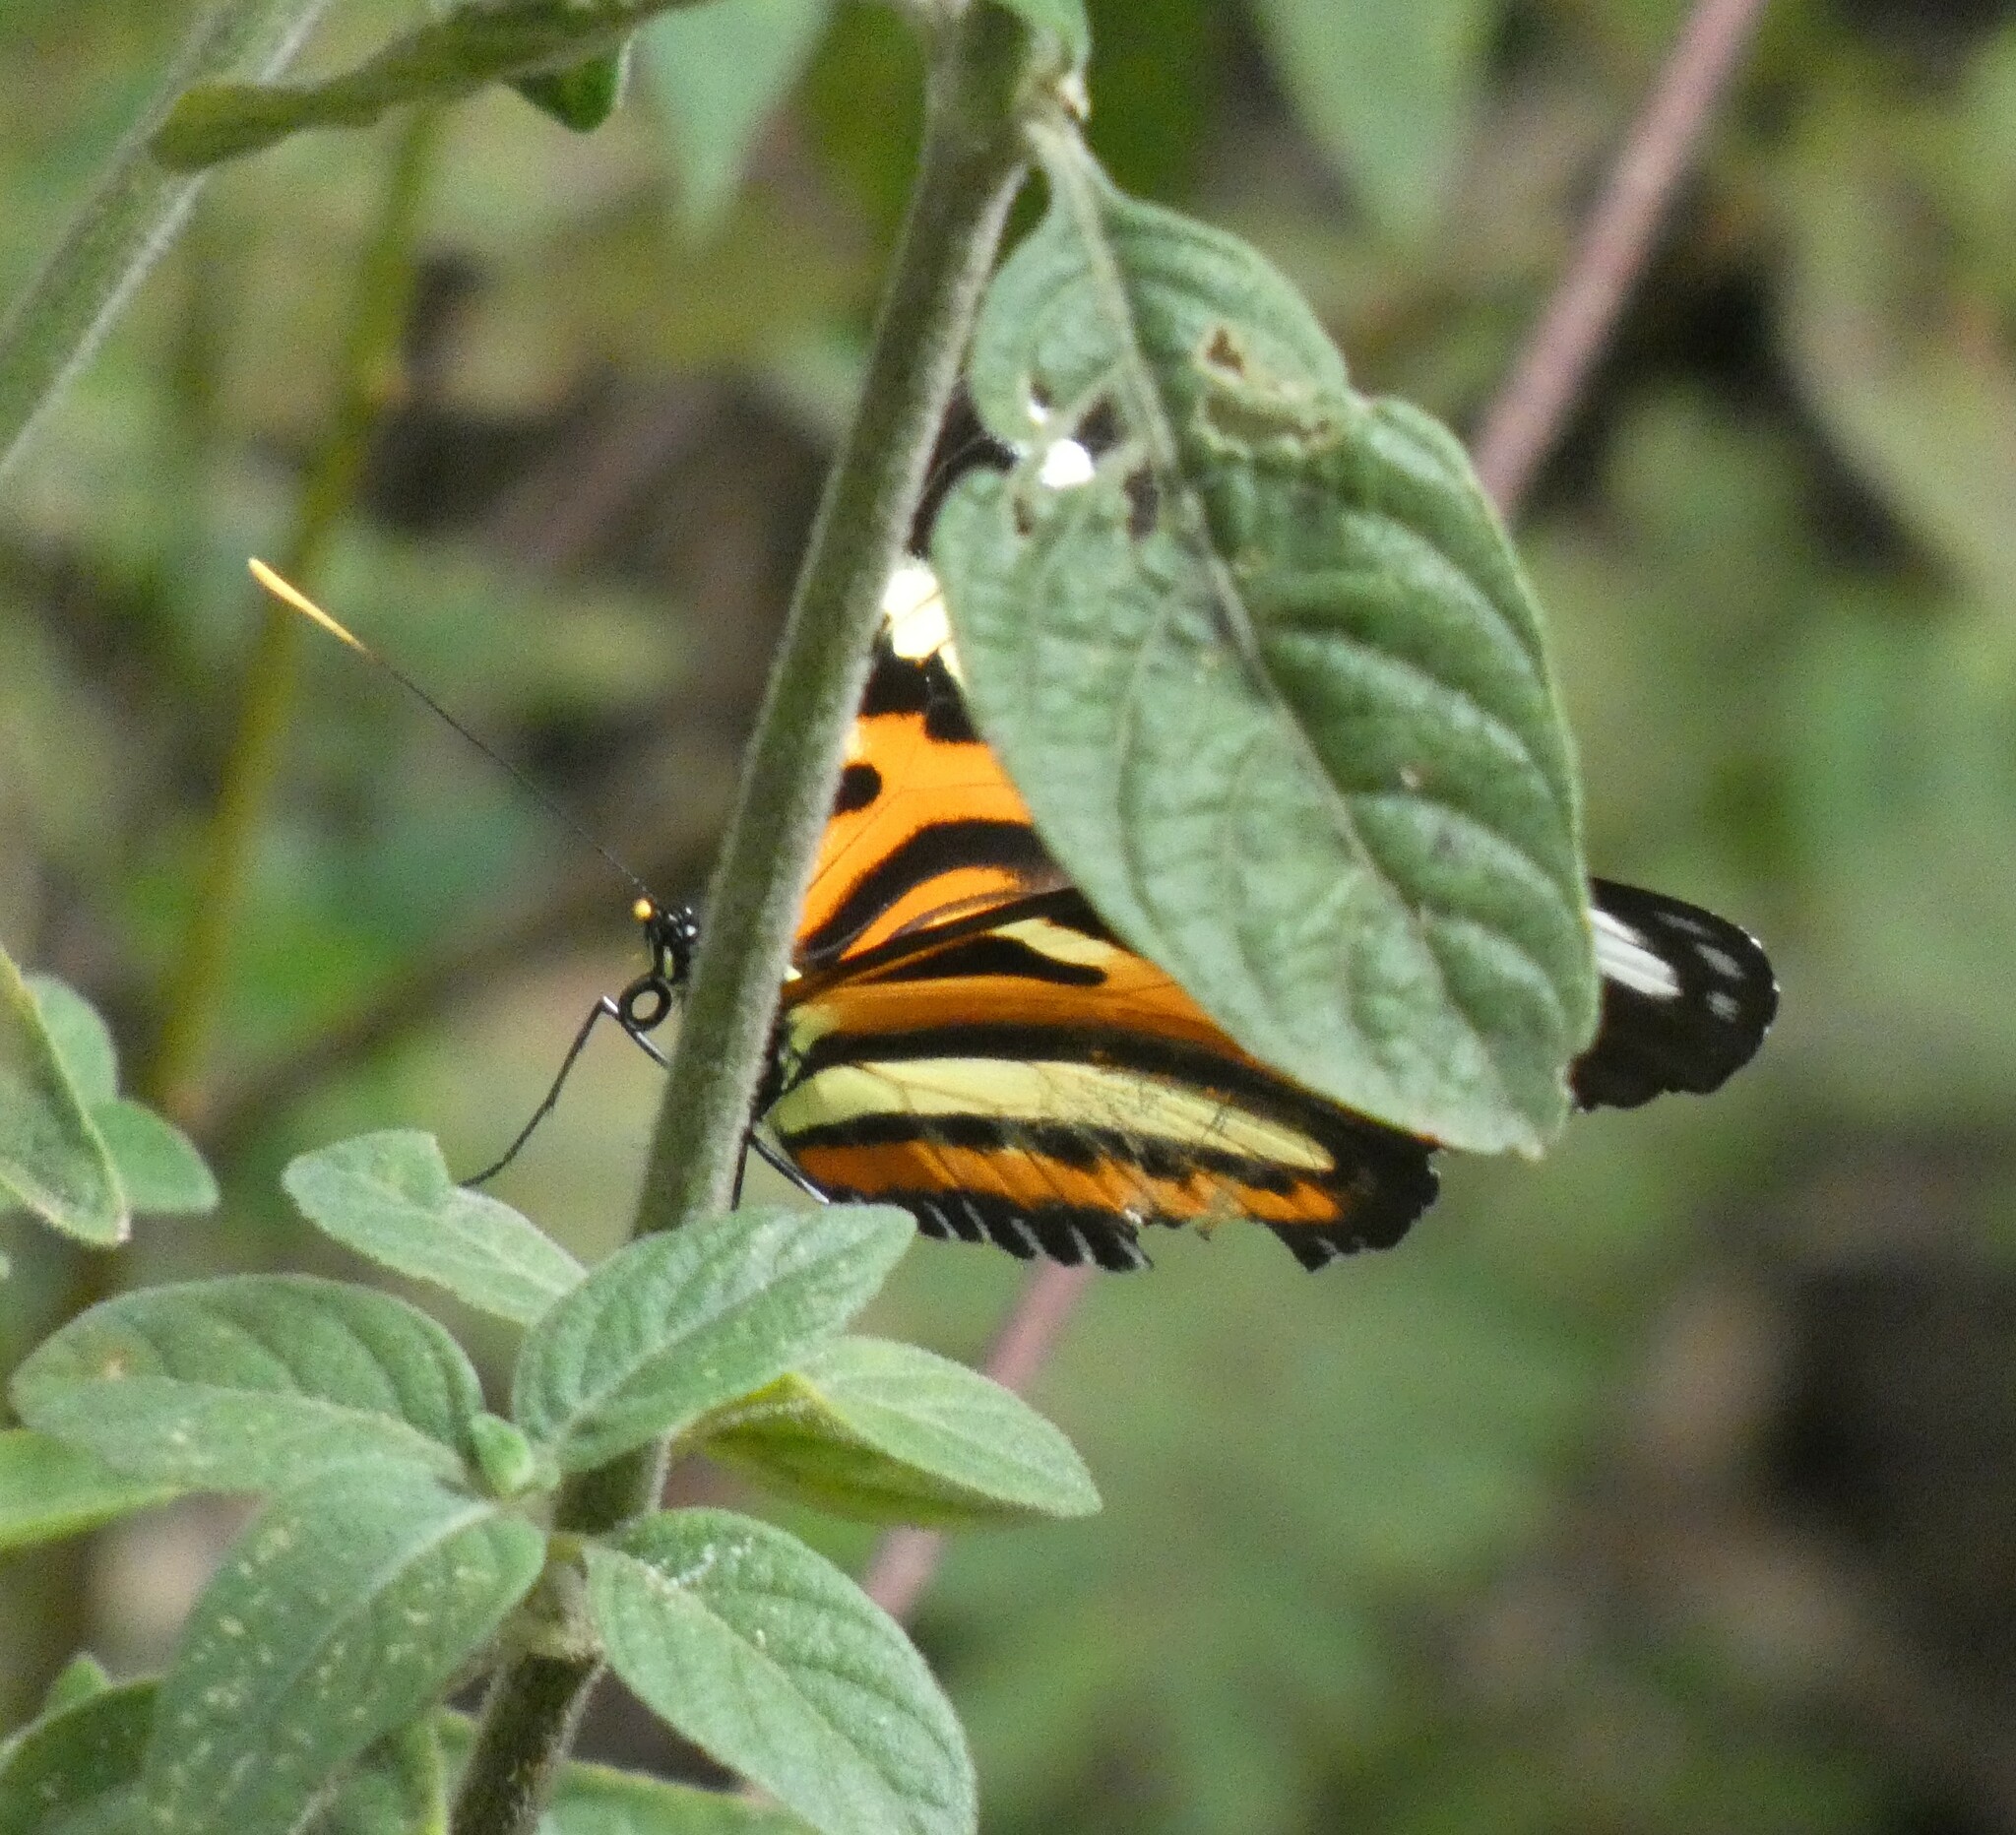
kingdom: Animalia
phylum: Arthropoda
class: Insecta
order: Lepidoptera
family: Nymphalidae
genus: Heliconius
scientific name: Heliconius ethilla
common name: Ethilia longwing
